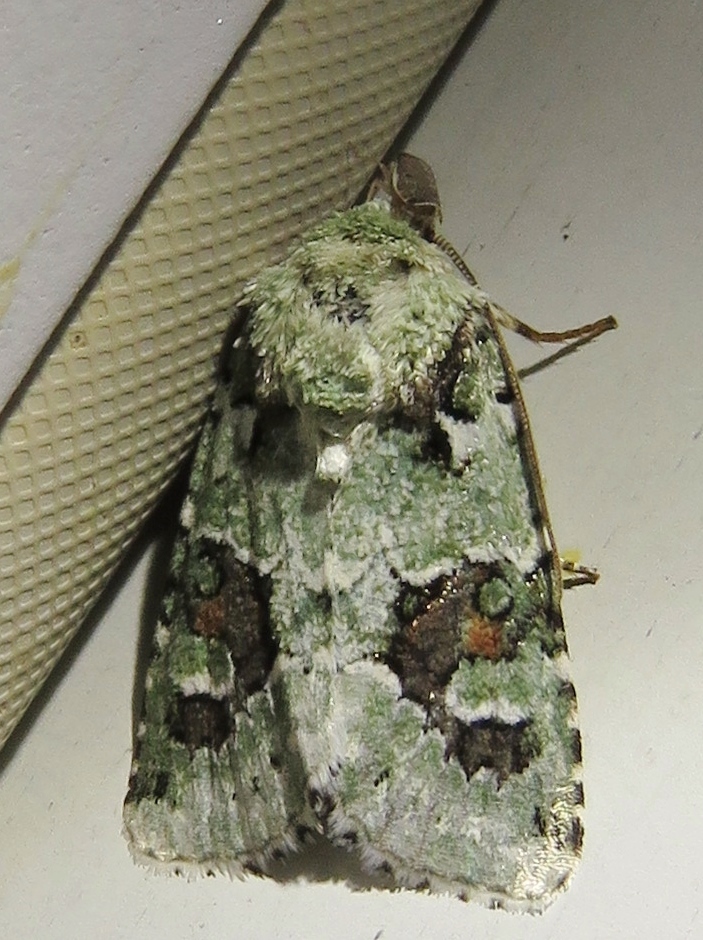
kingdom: Animalia
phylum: Arthropoda
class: Insecta
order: Lepidoptera
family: Noctuidae
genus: Lacinipolia
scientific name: Lacinipolia laudabilis
